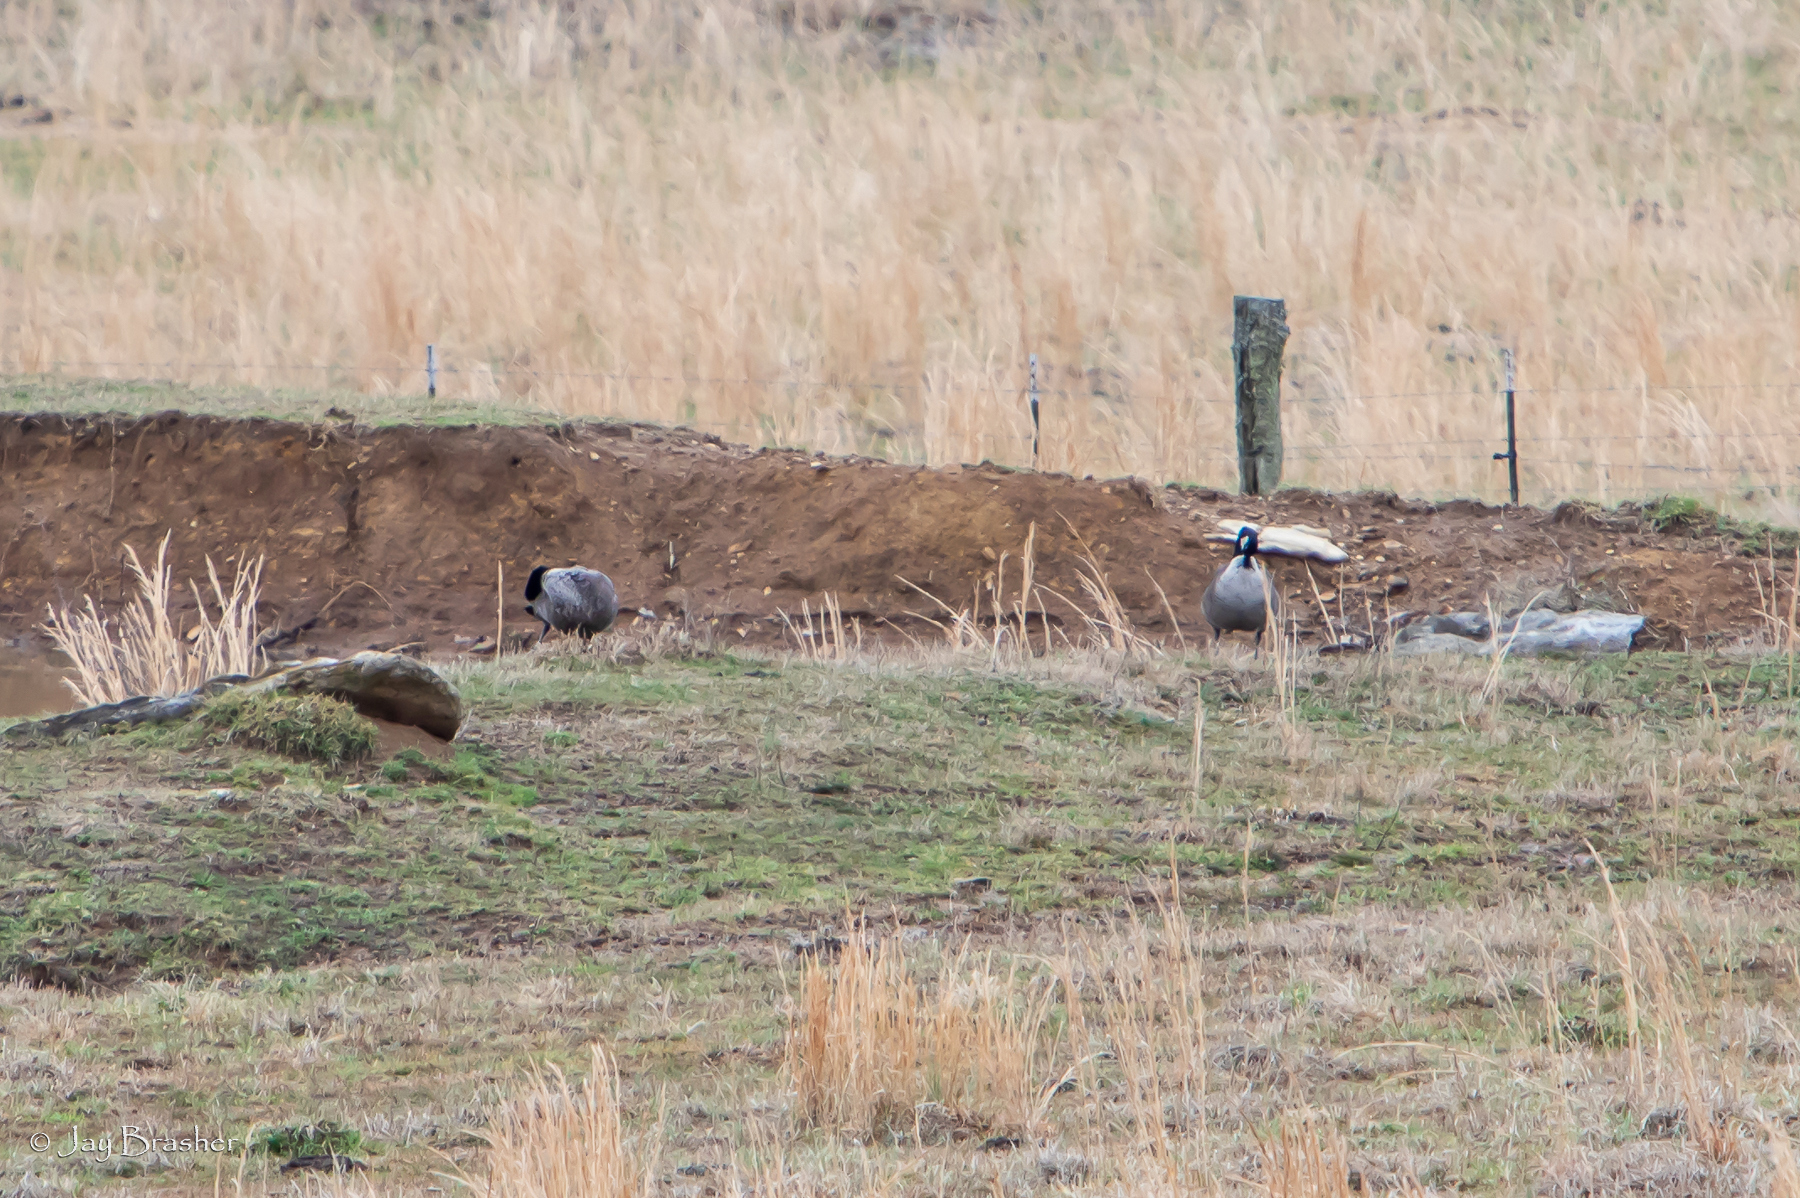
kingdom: Animalia
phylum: Chordata
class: Aves
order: Anseriformes
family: Anatidae
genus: Branta
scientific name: Branta canadensis
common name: Canada goose
